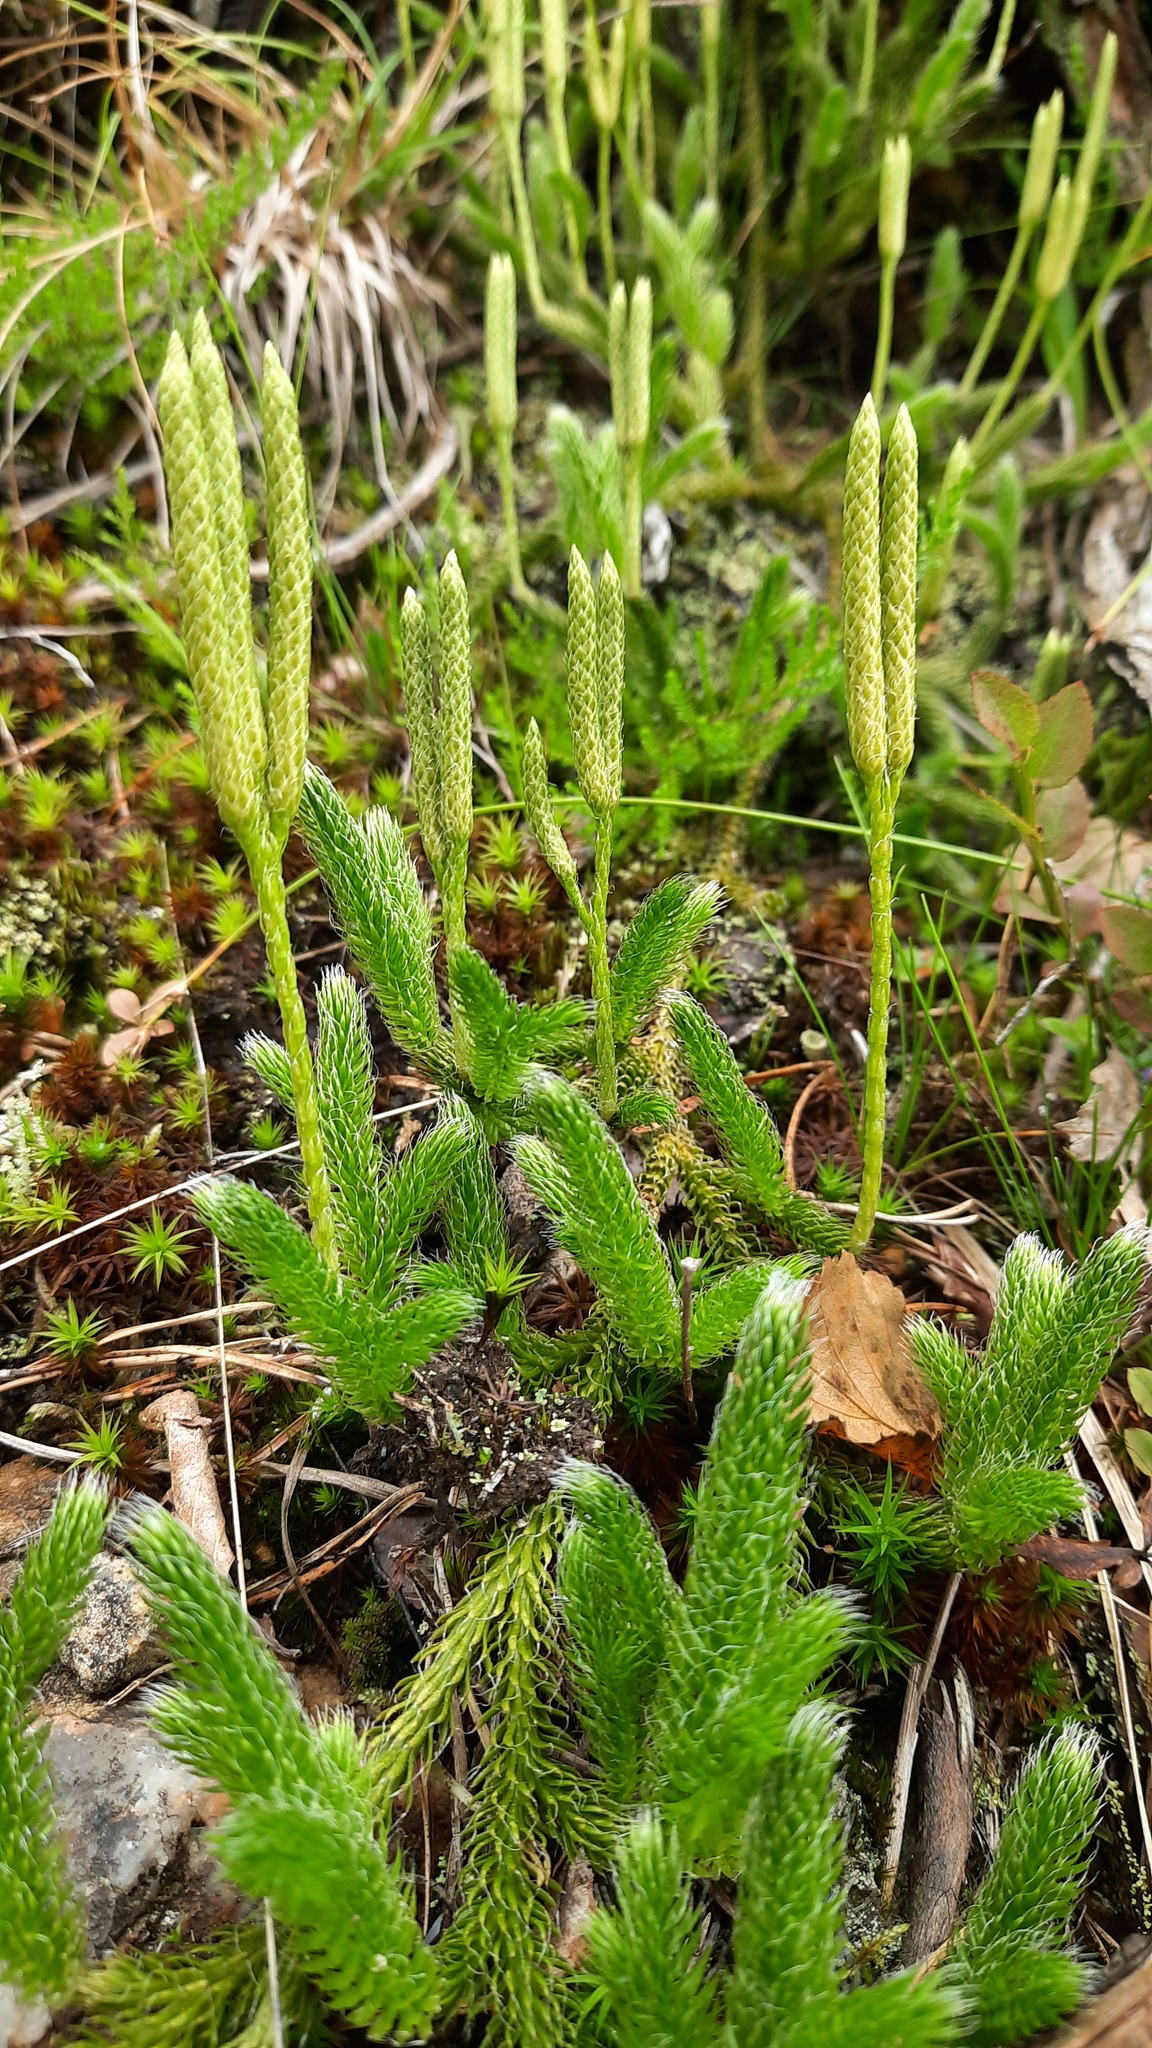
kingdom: Plantae
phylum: Tracheophyta
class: Lycopodiopsida
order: Lycopodiales
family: Lycopodiaceae
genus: Lycopodium
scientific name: Lycopodium clavatum
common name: Stag's-horn clubmoss
